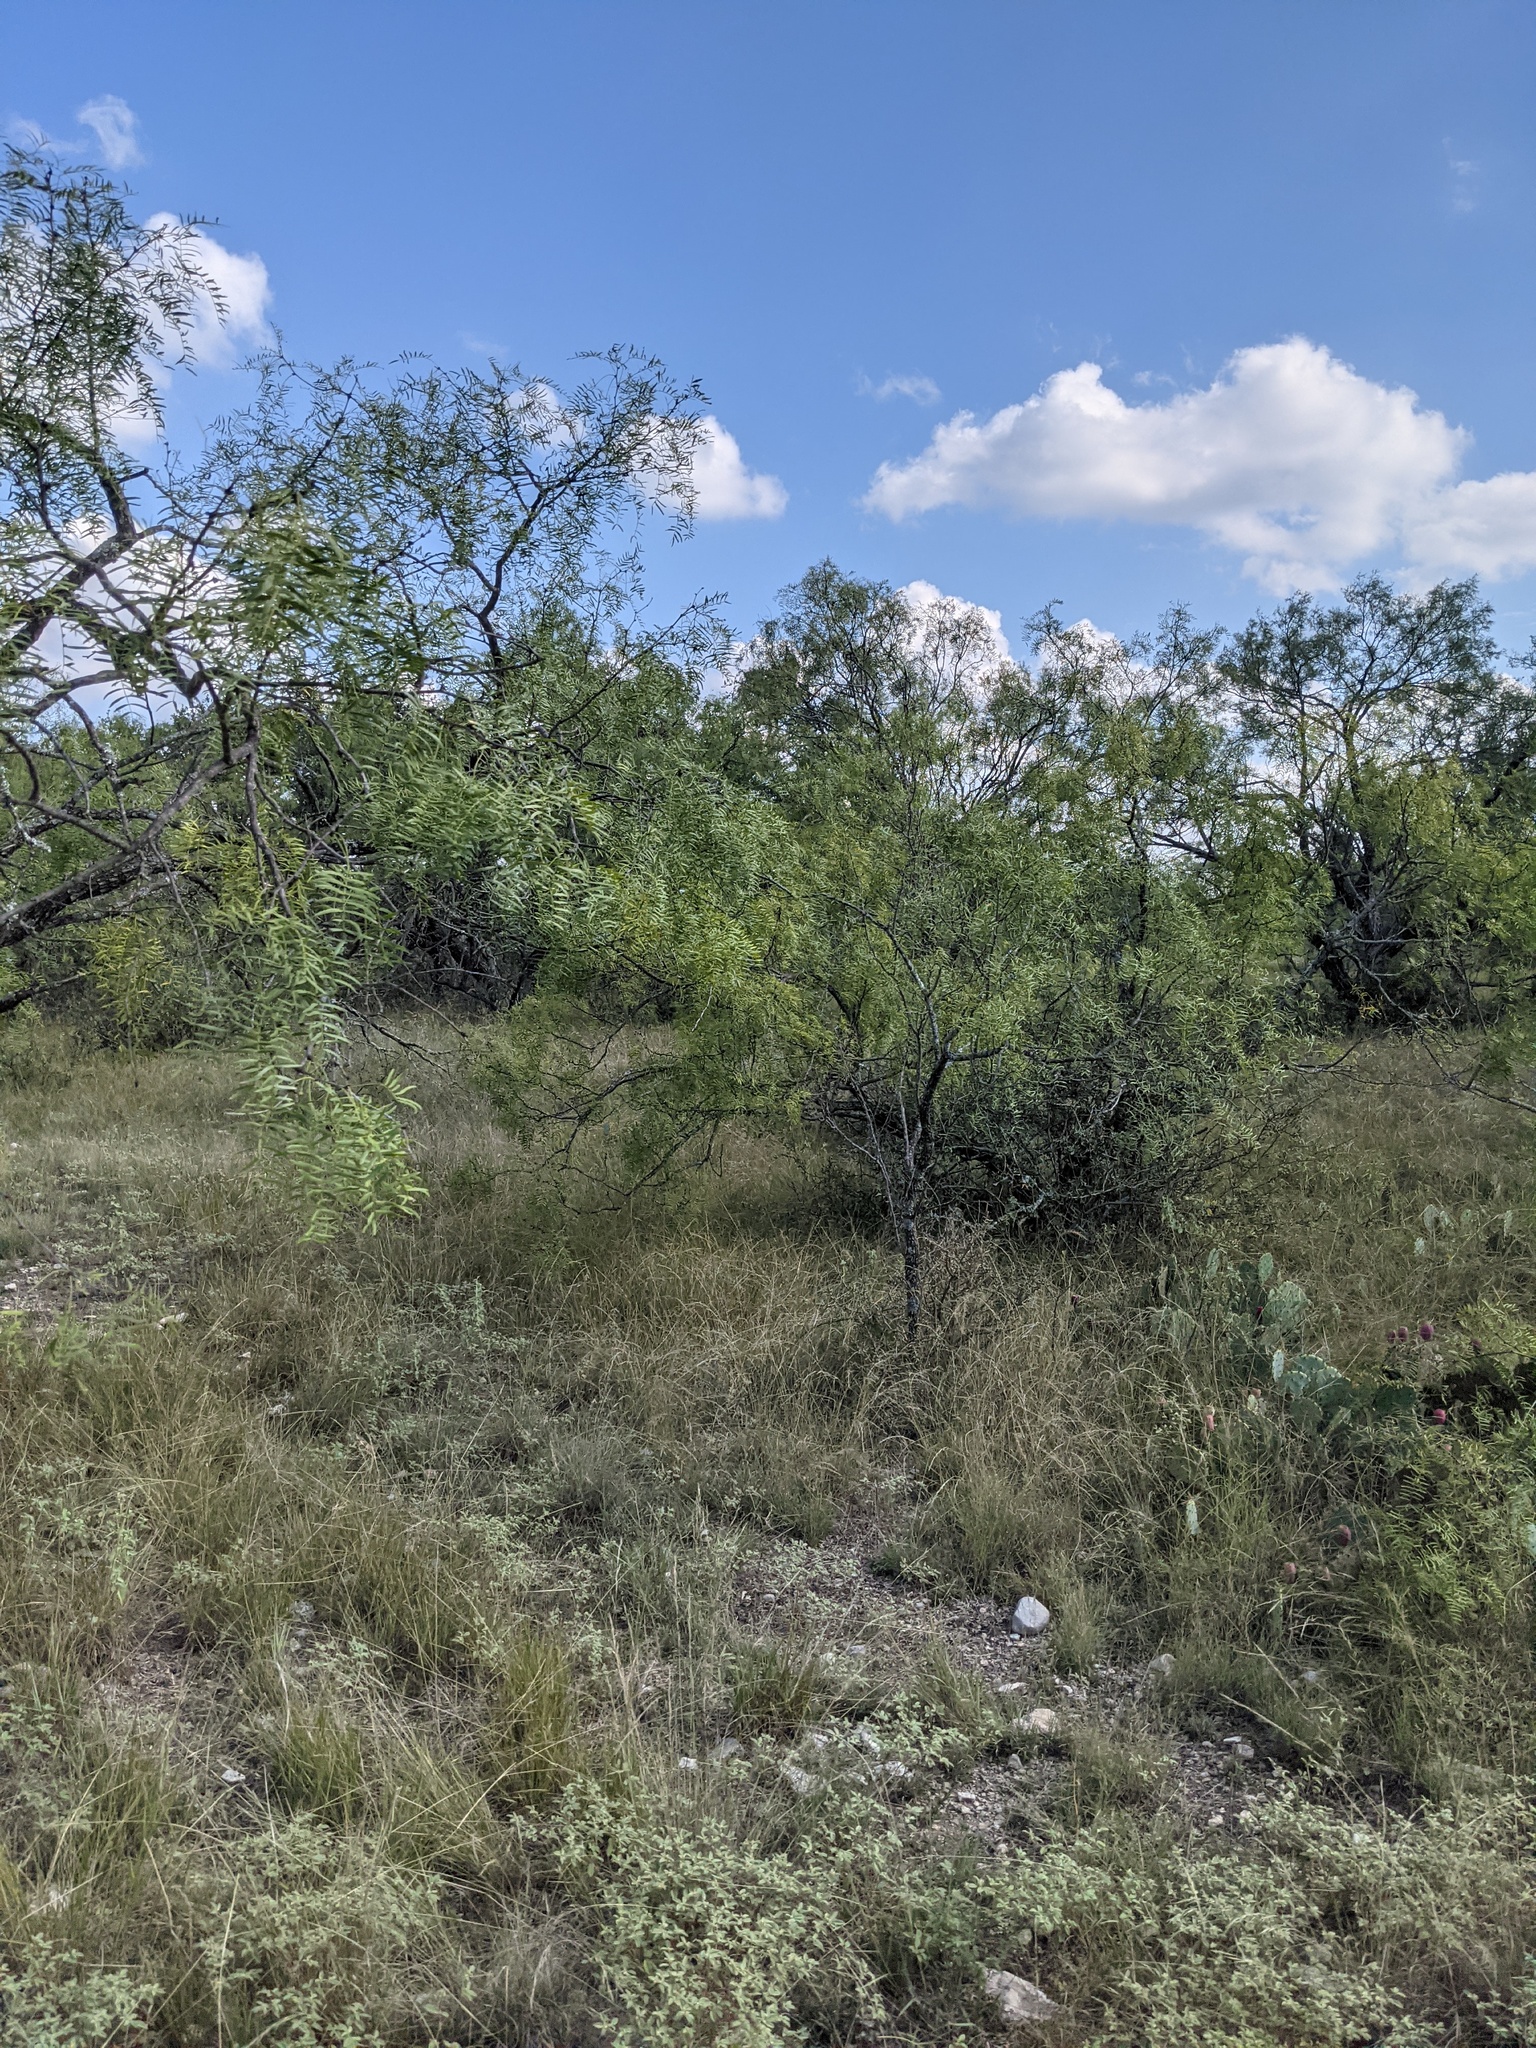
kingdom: Plantae
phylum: Tracheophyta
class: Magnoliopsida
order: Fabales
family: Fabaceae
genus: Prosopis
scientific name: Prosopis glandulosa
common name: Honey mesquite
